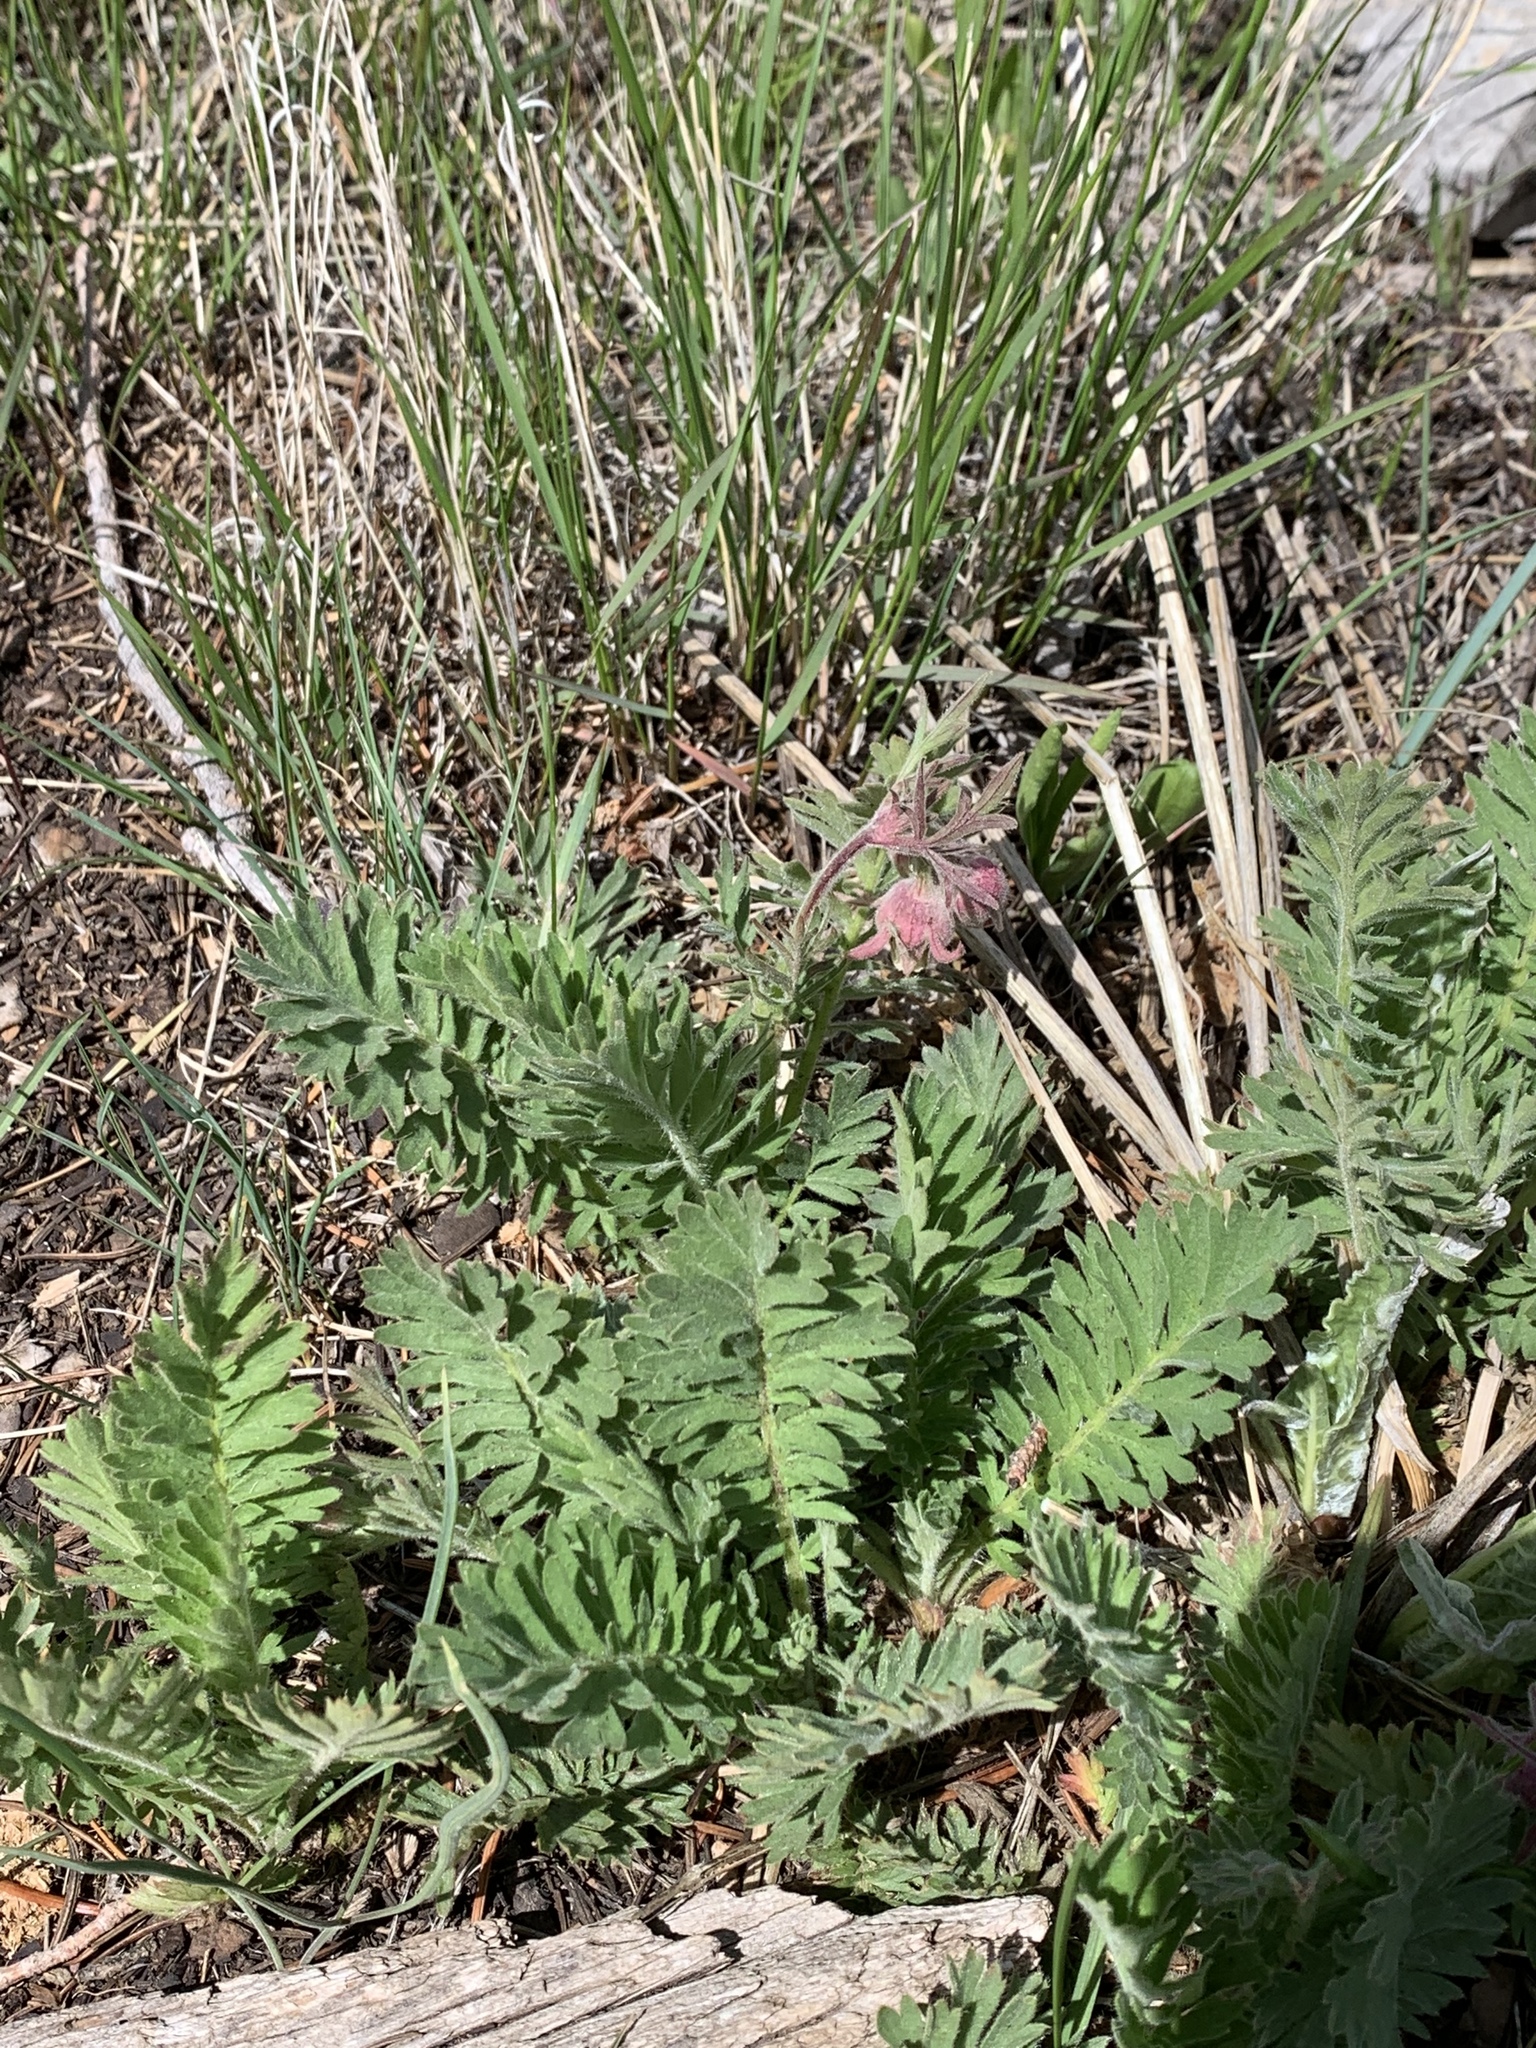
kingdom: Plantae
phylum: Tracheophyta
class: Magnoliopsida
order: Rosales
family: Rosaceae
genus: Geum
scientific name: Geum triflorum
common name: Old man's whiskers
